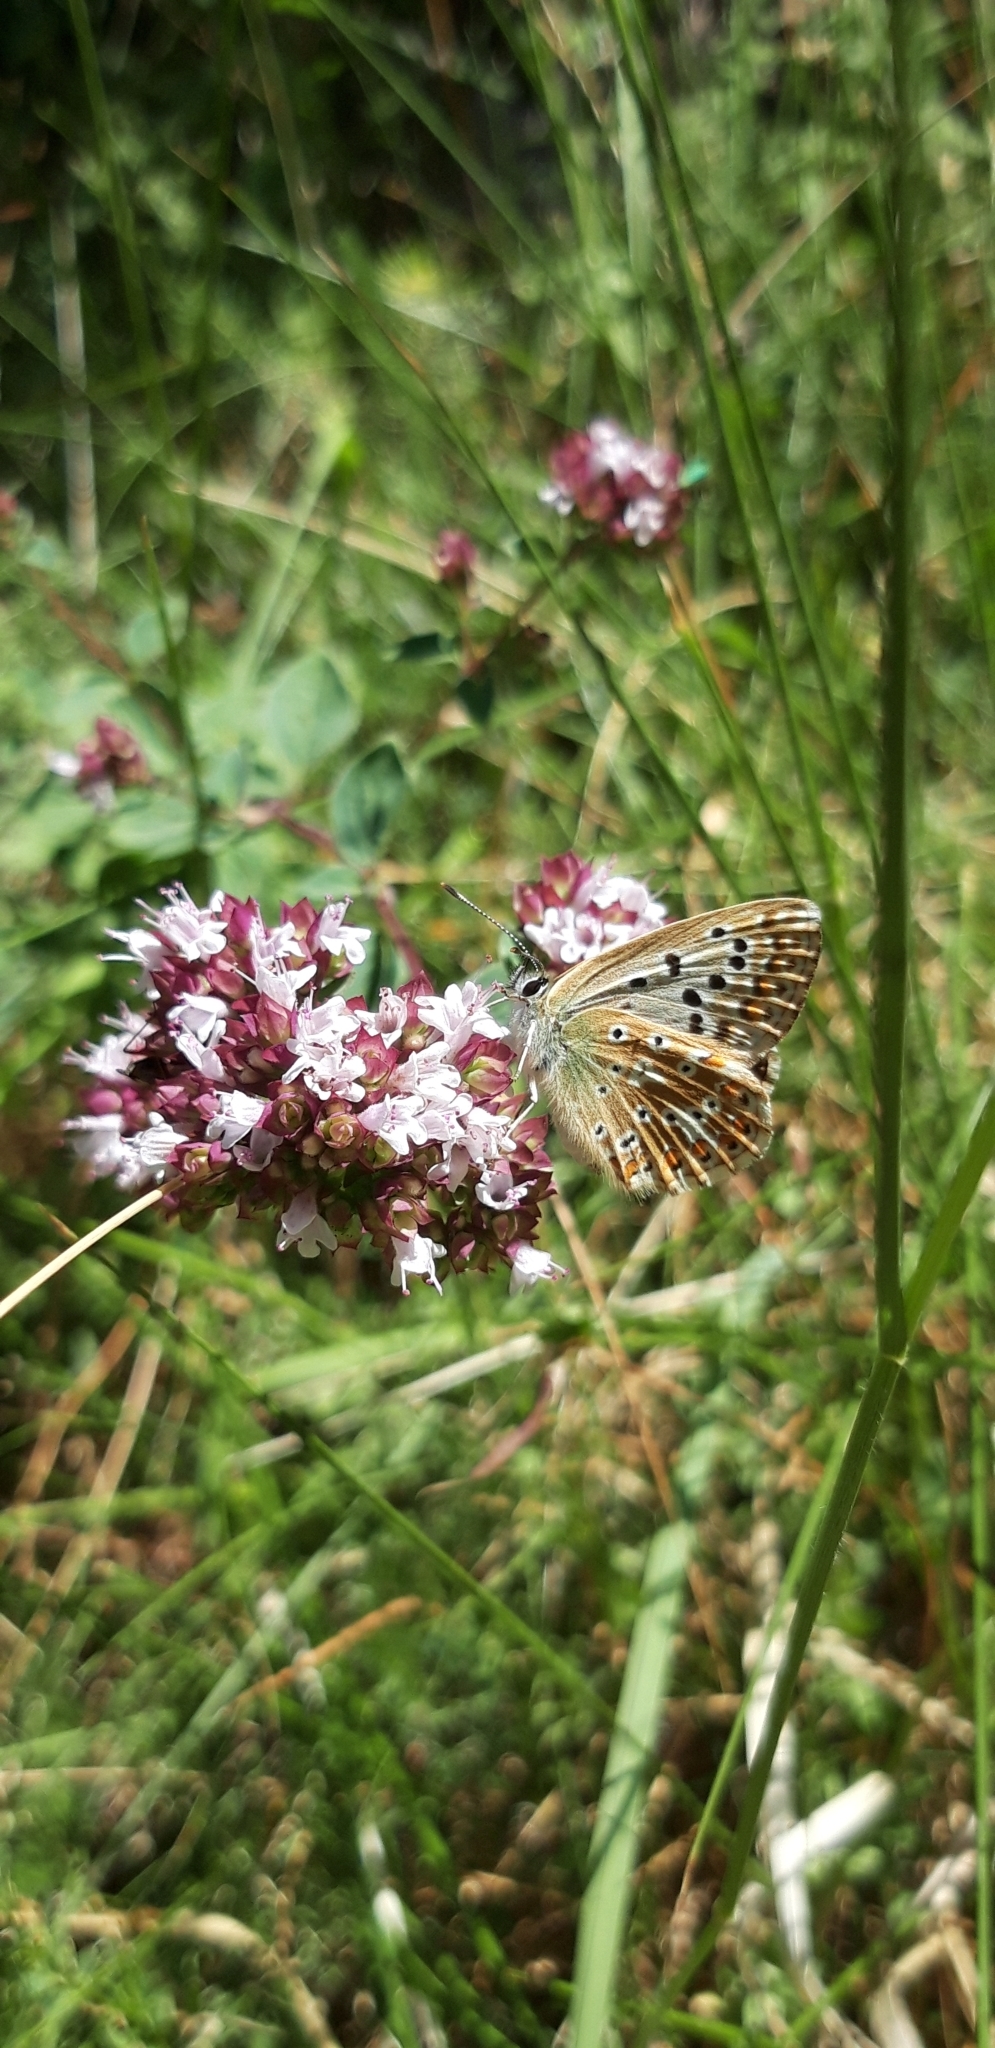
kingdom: Animalia
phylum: Arthropoda
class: Insecta
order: Lepidoptera
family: Lycaenidae
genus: Lysandra
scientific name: Lysandra
